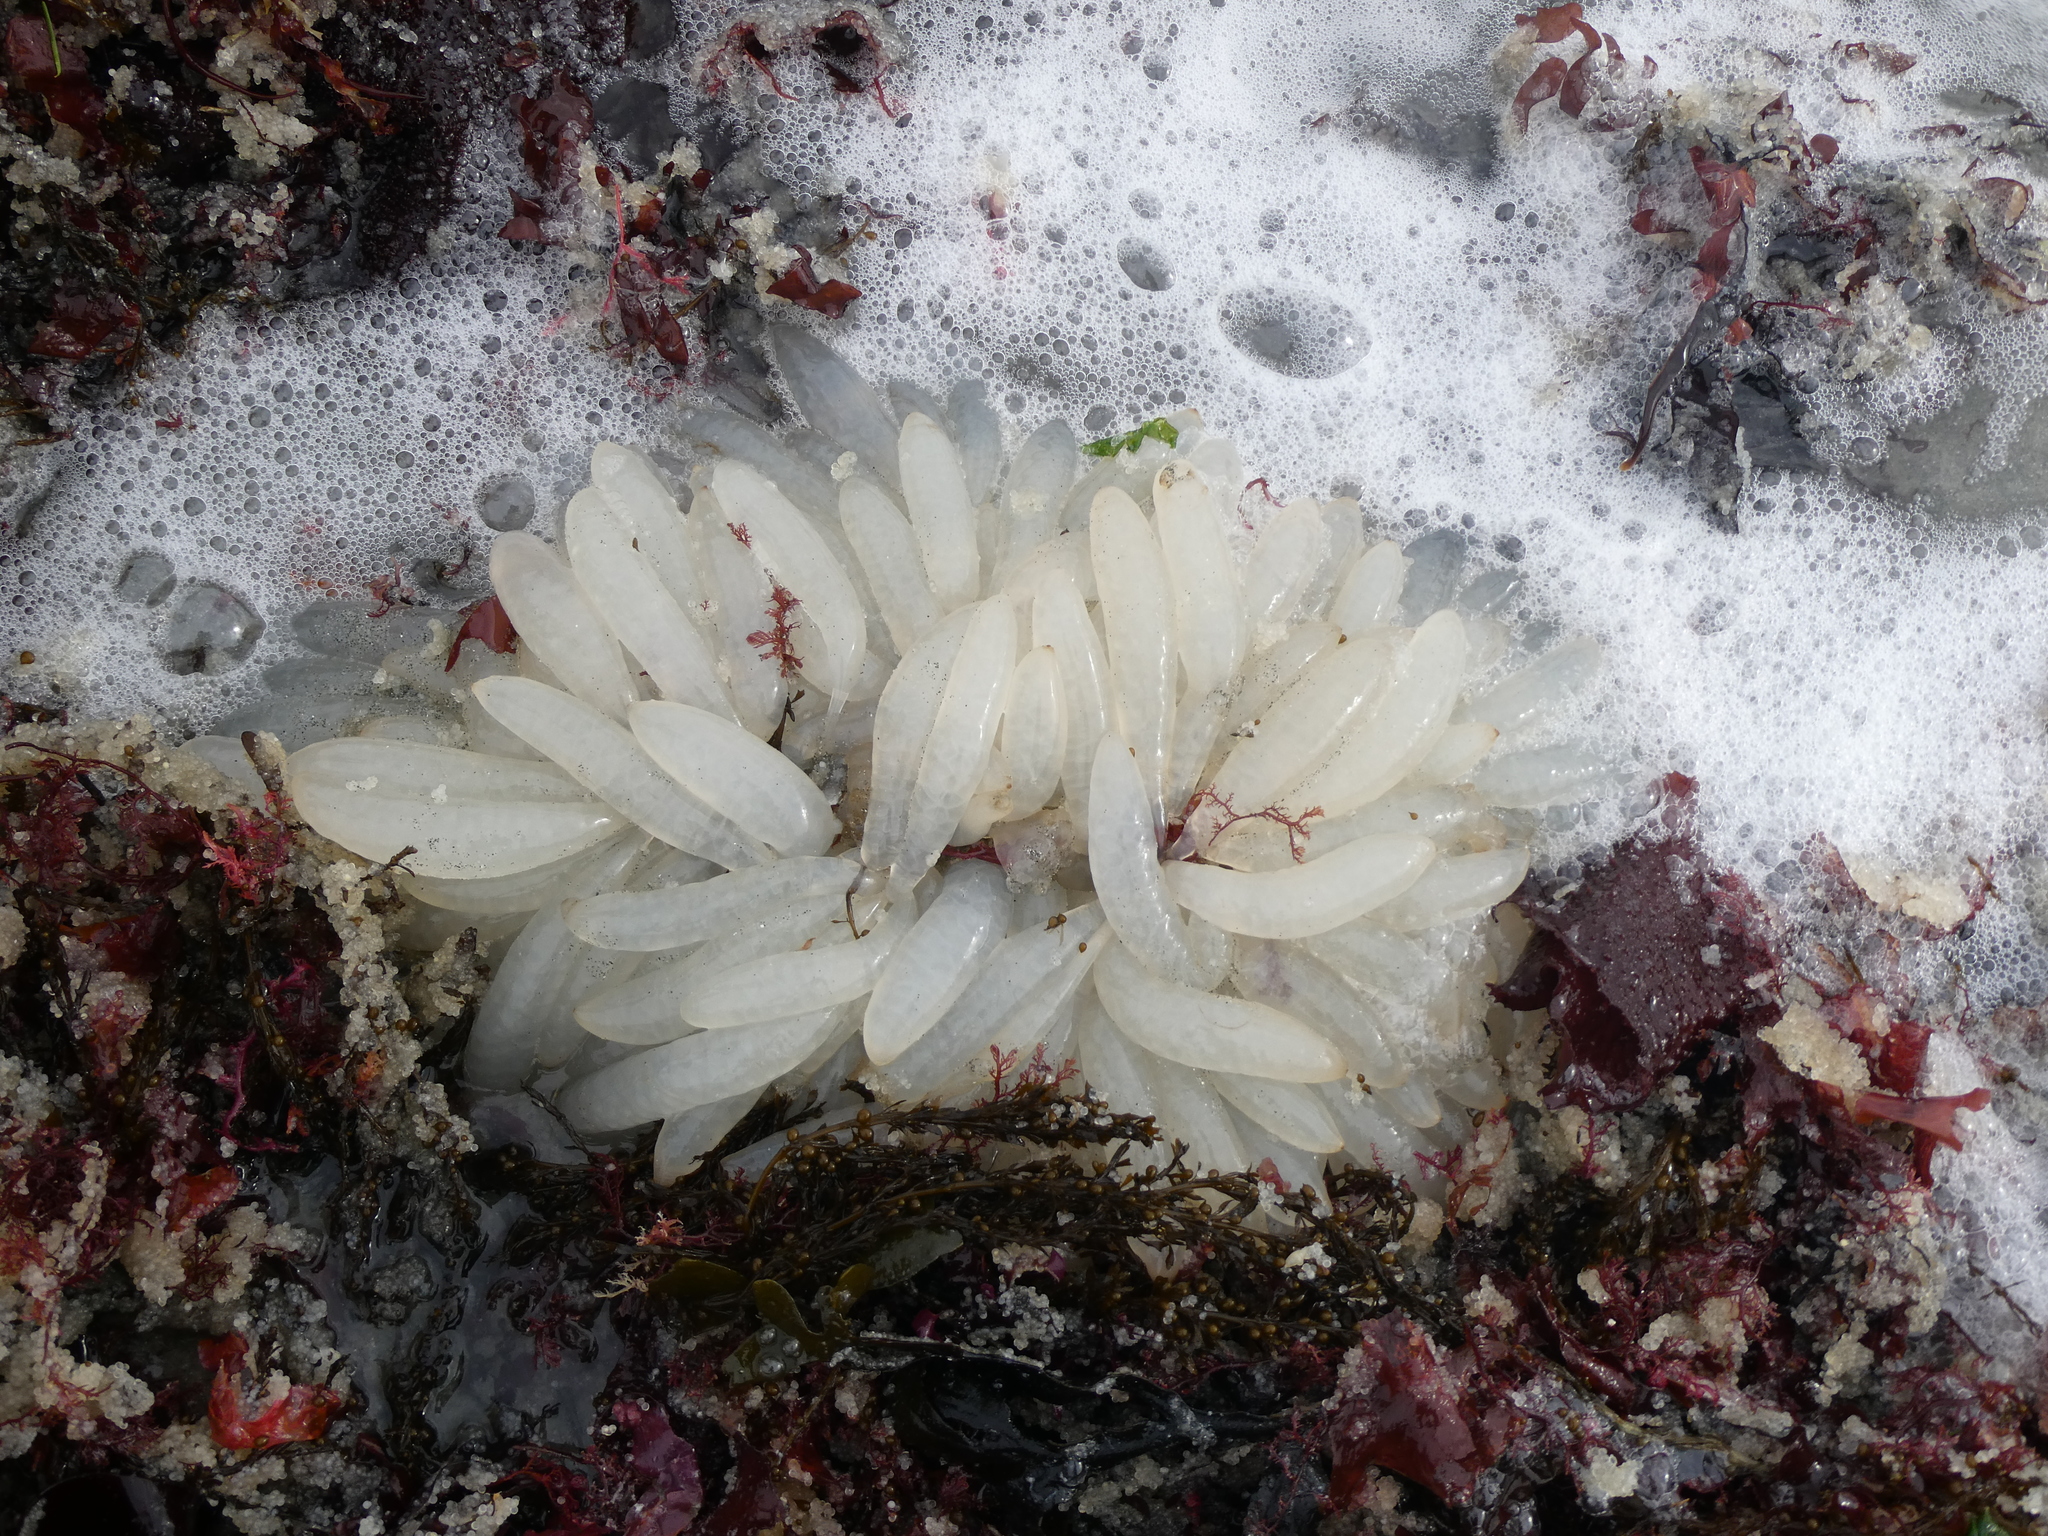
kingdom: Animalia
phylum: Mollusca
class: Cephalopoda
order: Myopsida
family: Loliginidae
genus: Doryteuthis
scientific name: Doryteuthis opalescens
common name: Opalescent inshore squid
